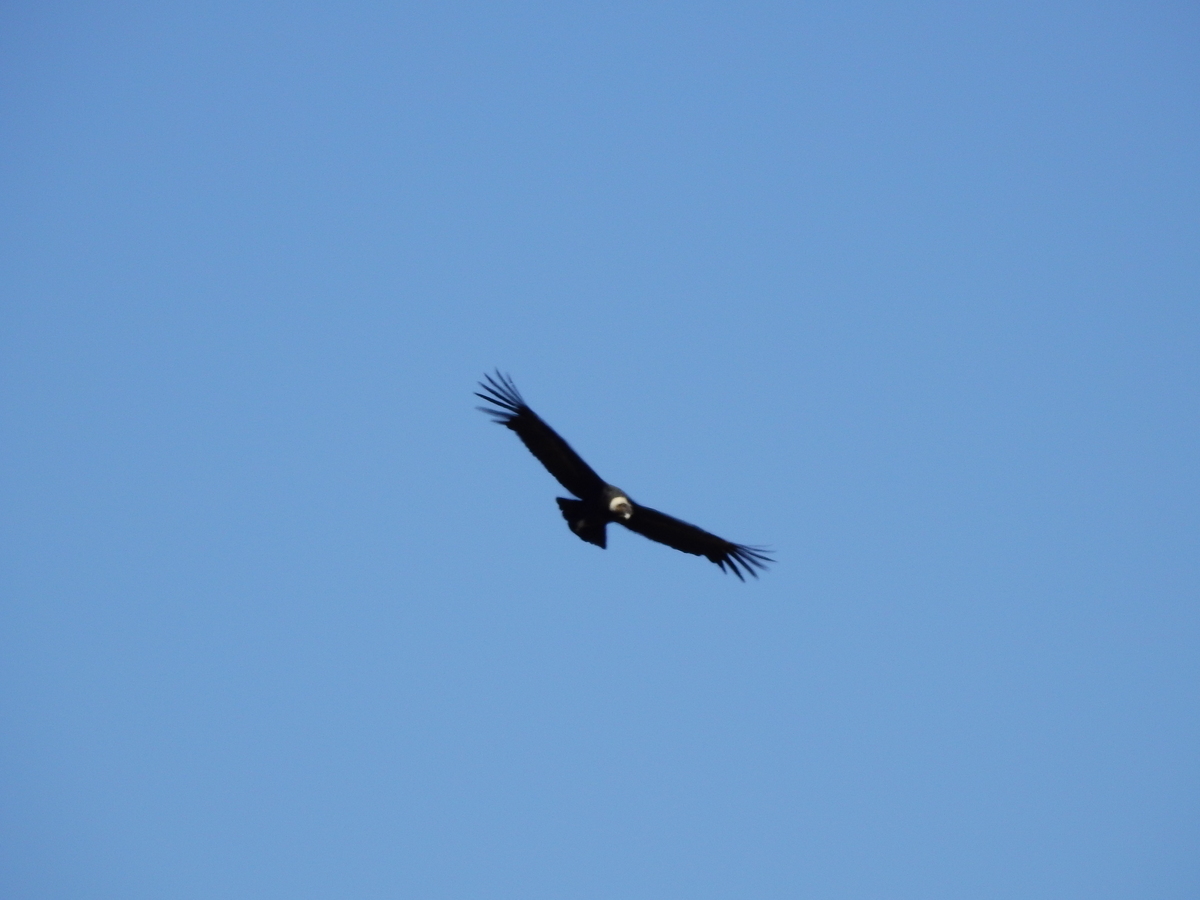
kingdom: Animalia
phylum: Chordata
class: Aves
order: Accipitriformes
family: Cathartidae
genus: Vultur
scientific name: Vultur gryphus
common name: Andean condor
